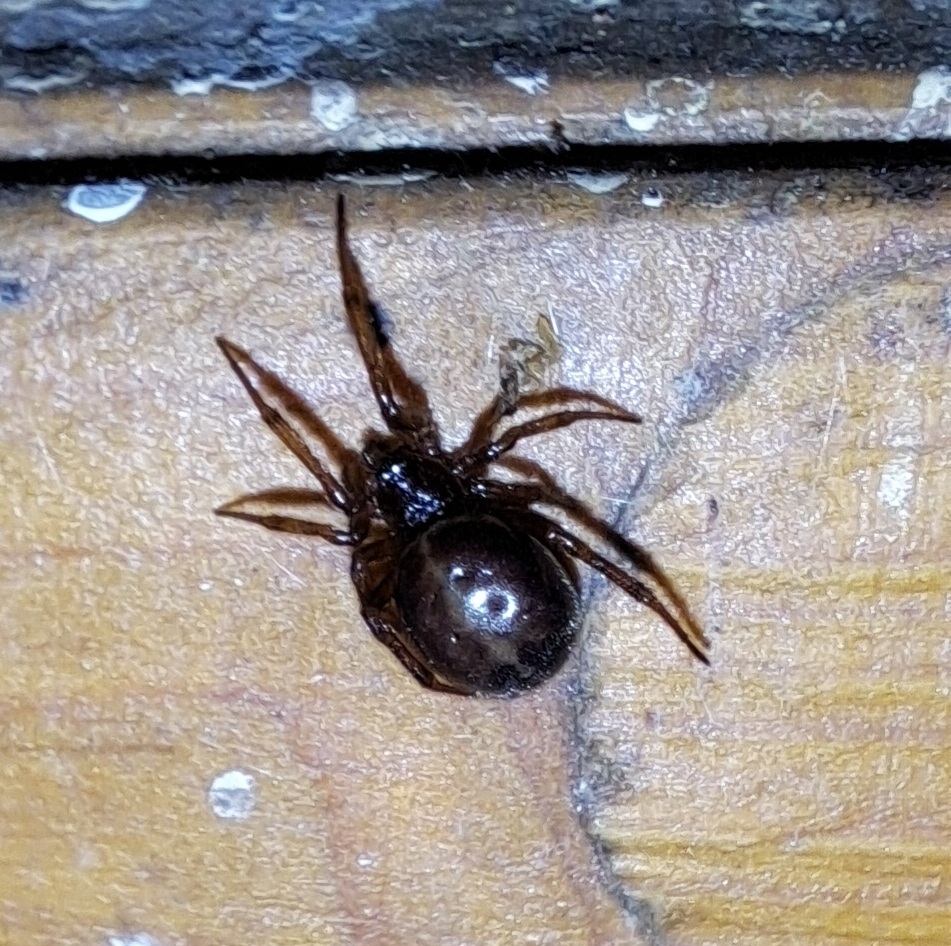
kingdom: Animalia
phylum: Arthropoda
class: Arachnida
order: Araneae
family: Theridiidae
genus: Steatoda
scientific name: Steatoda bipunctata
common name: False widow
